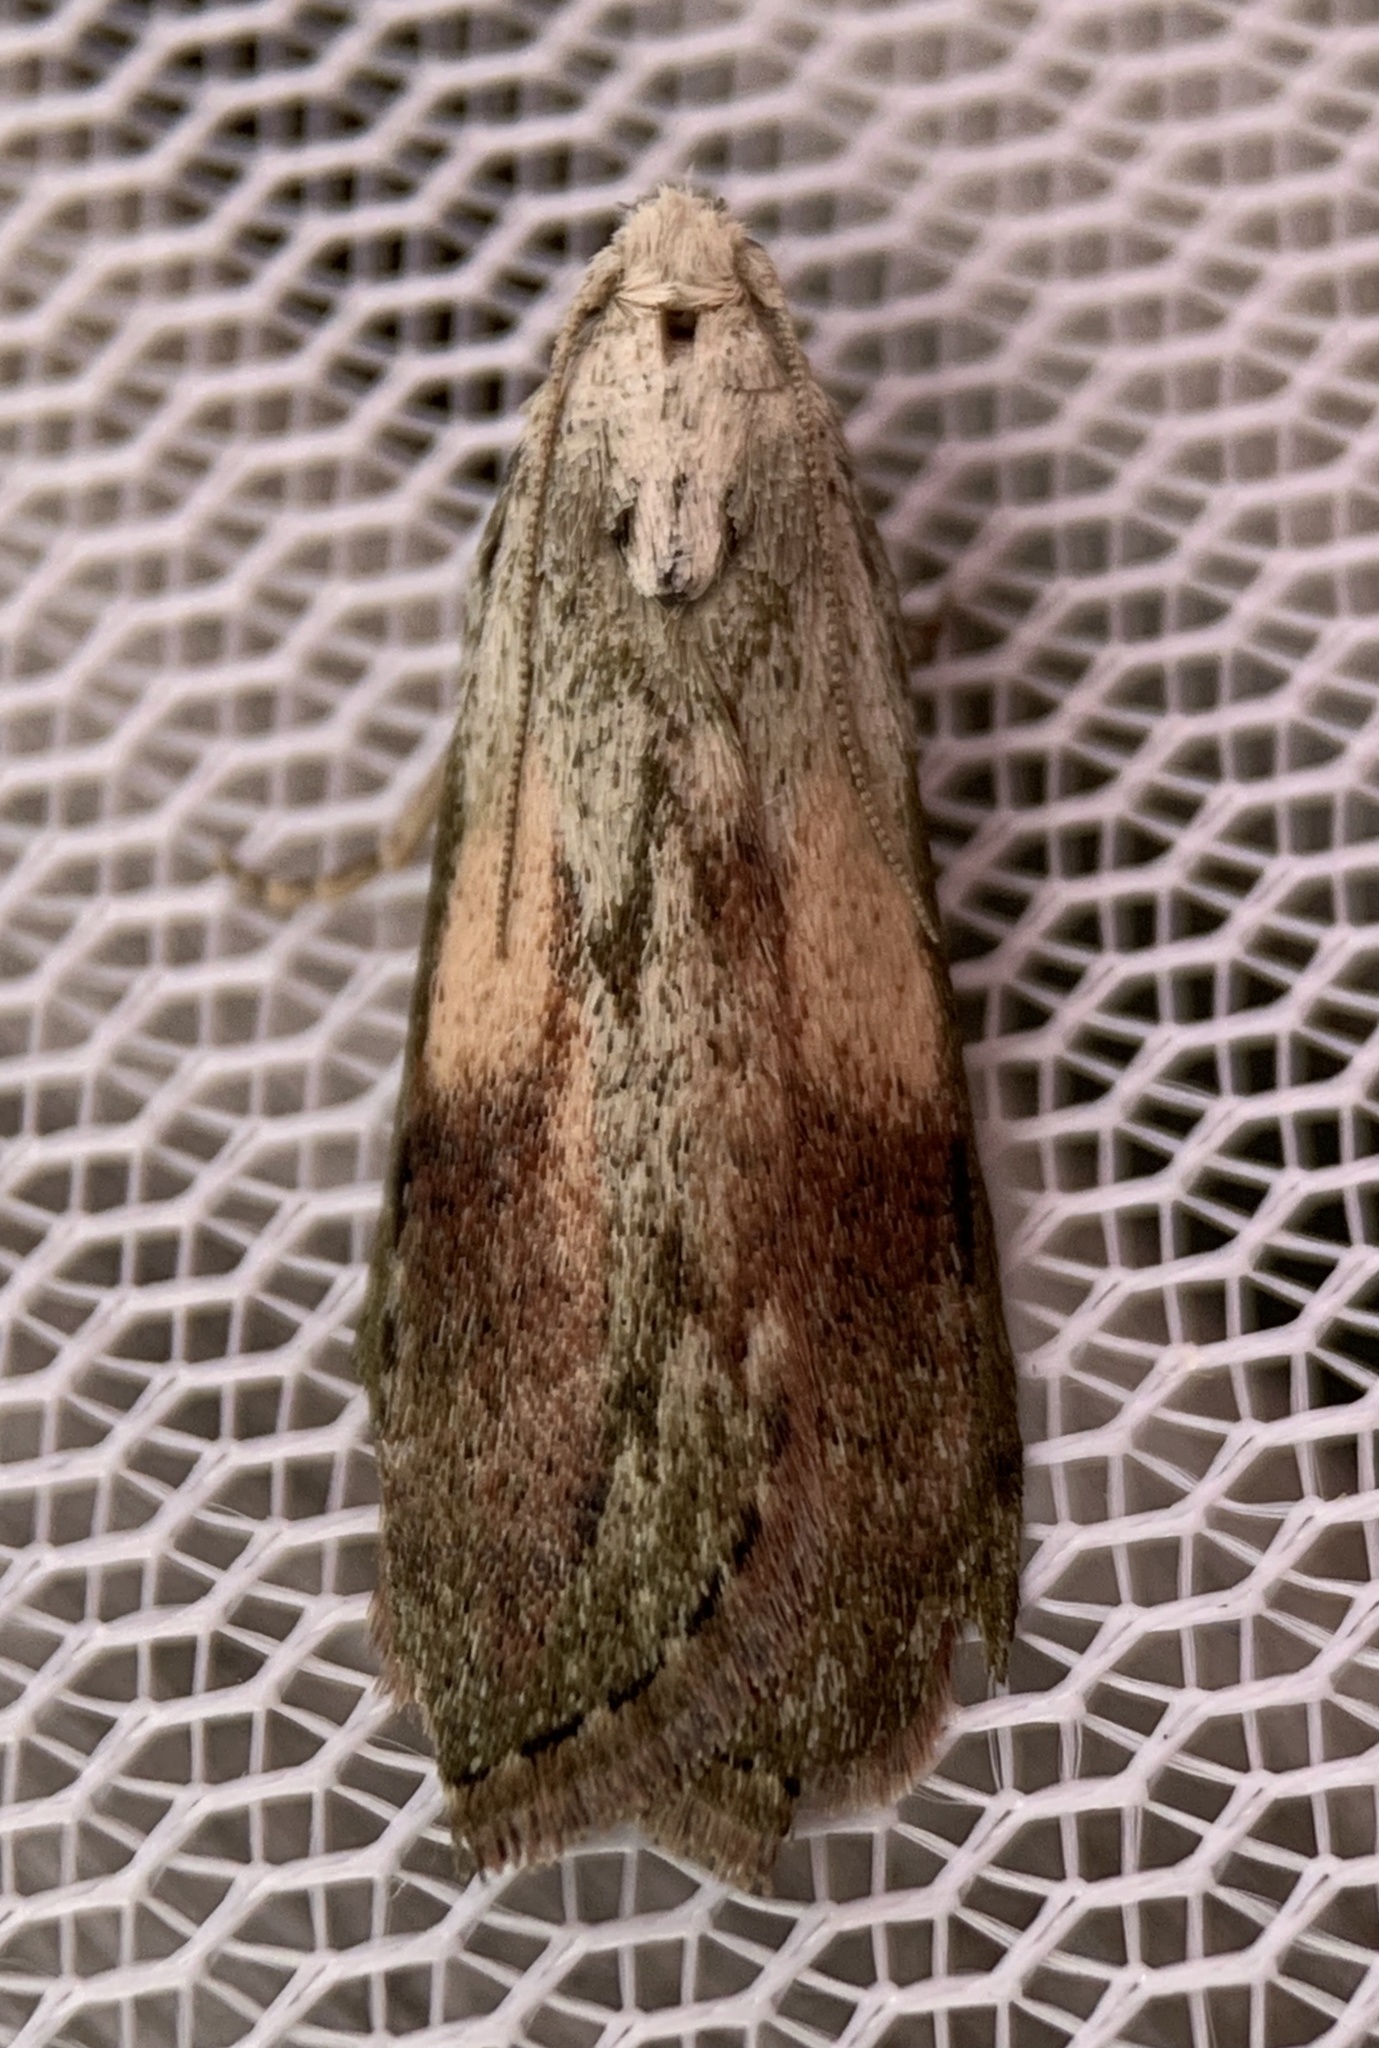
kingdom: Animalia
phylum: Arthropoda
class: Insecta
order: Lepidoptera
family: Pyralidae
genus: Aphomia
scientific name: Aphomia sociella
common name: Bee moth
